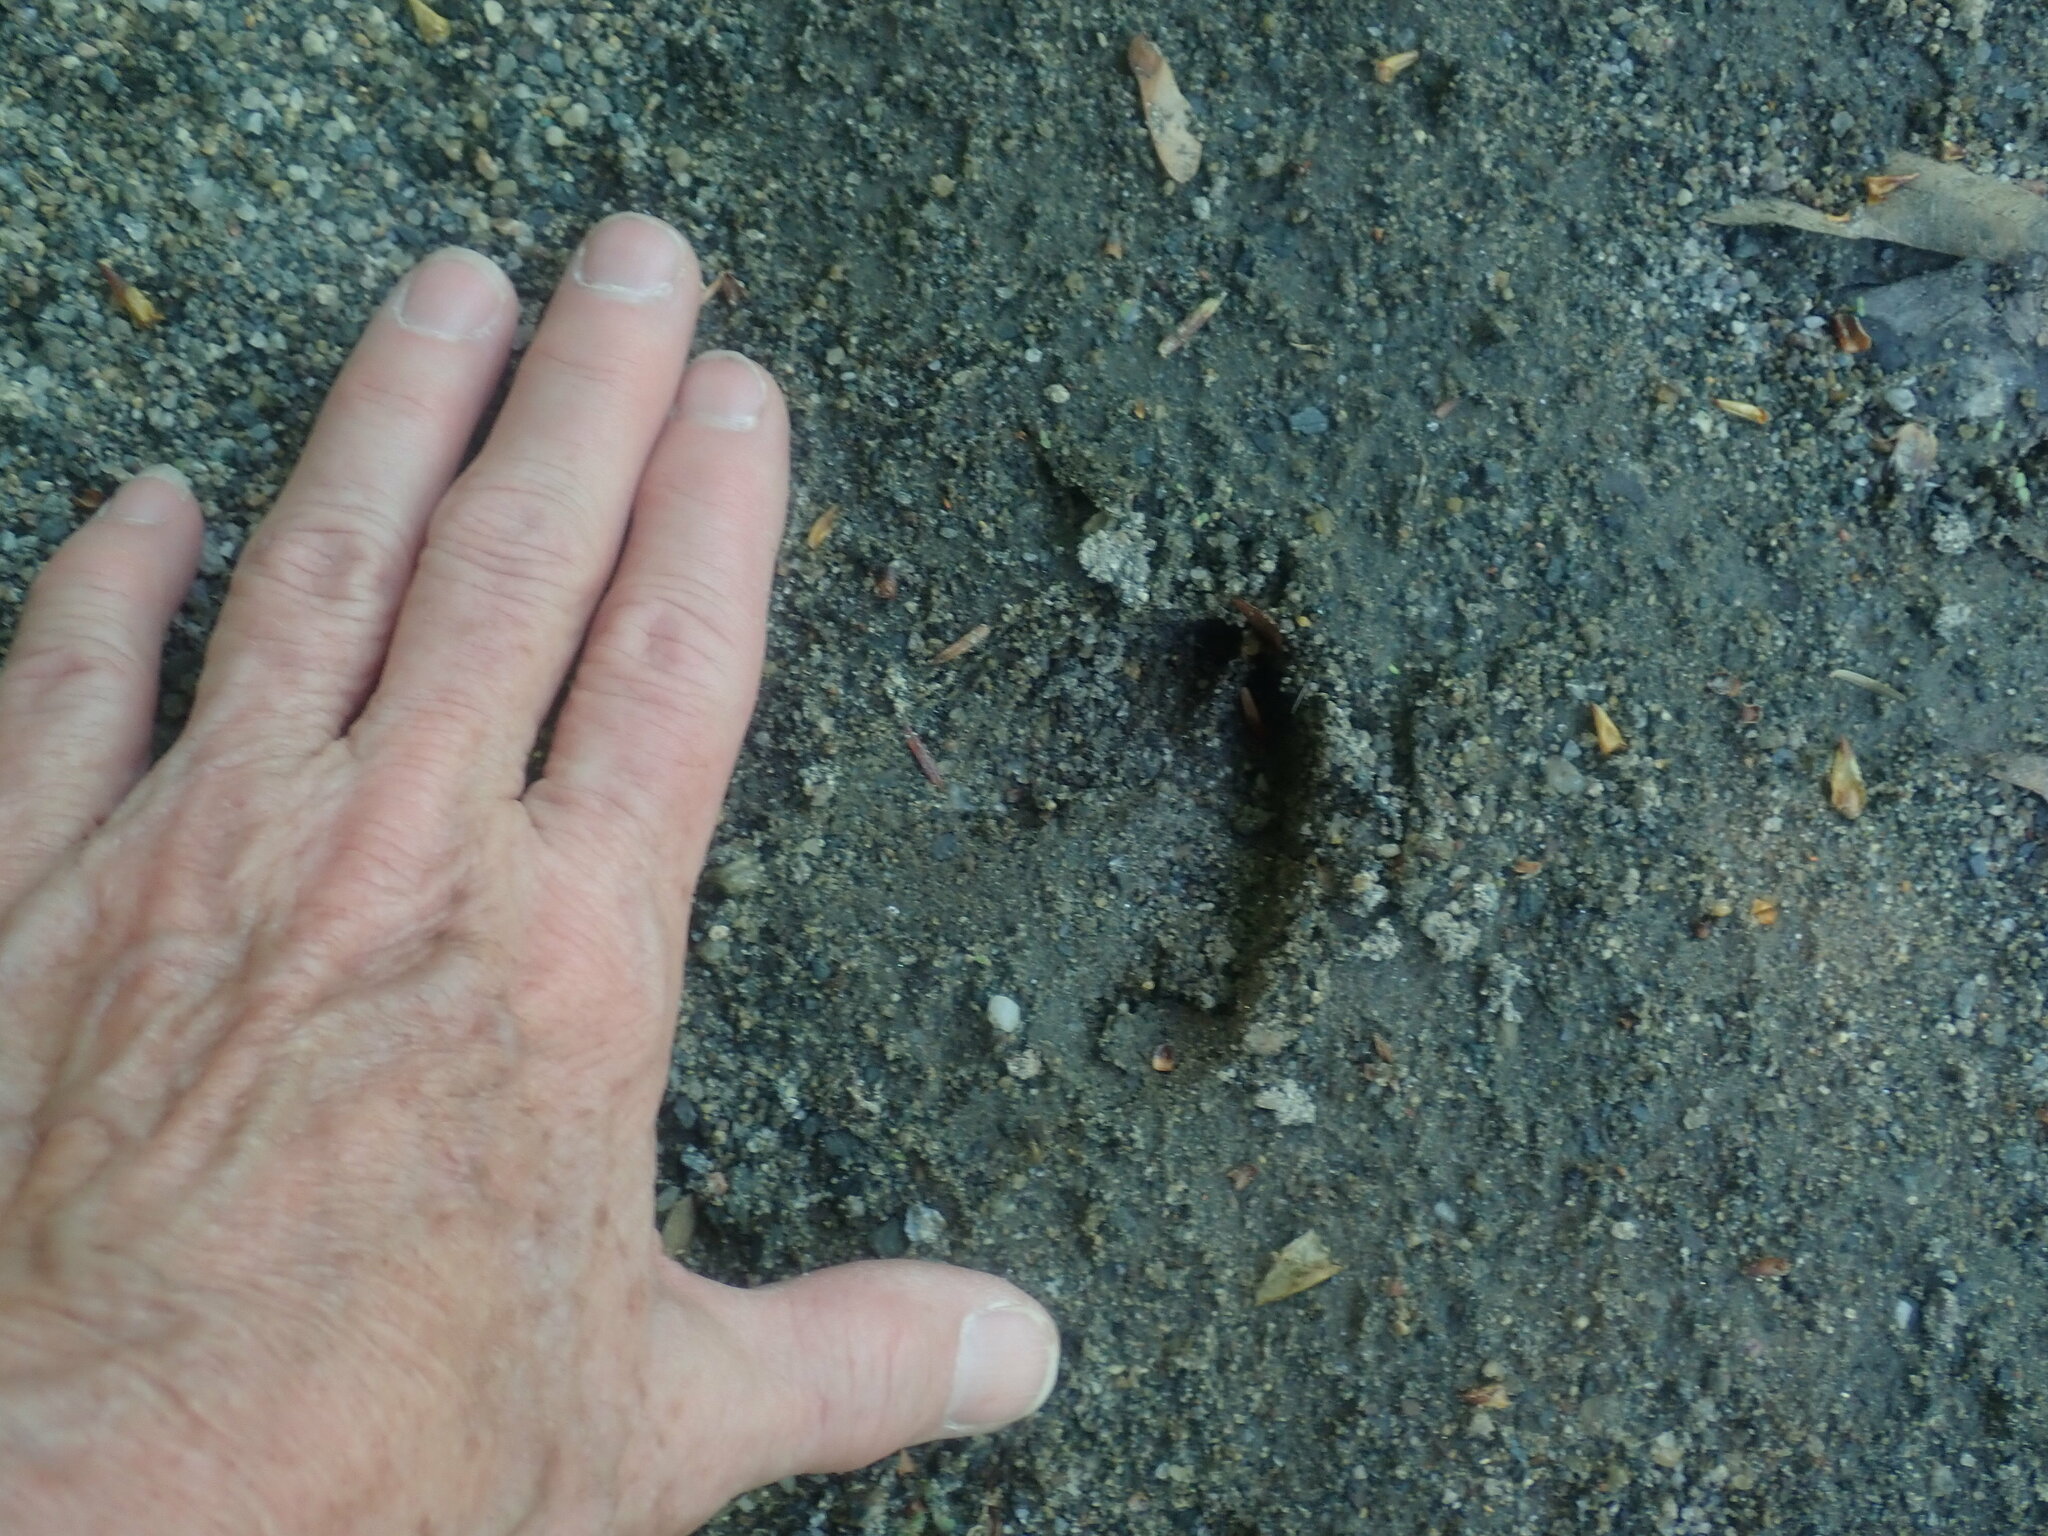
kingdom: Animalia
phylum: Chordata
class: Mammalia
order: Artiodactyla
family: Cervidae
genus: Odocoileus
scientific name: Odocoileus virginianus
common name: White-tailed deer
